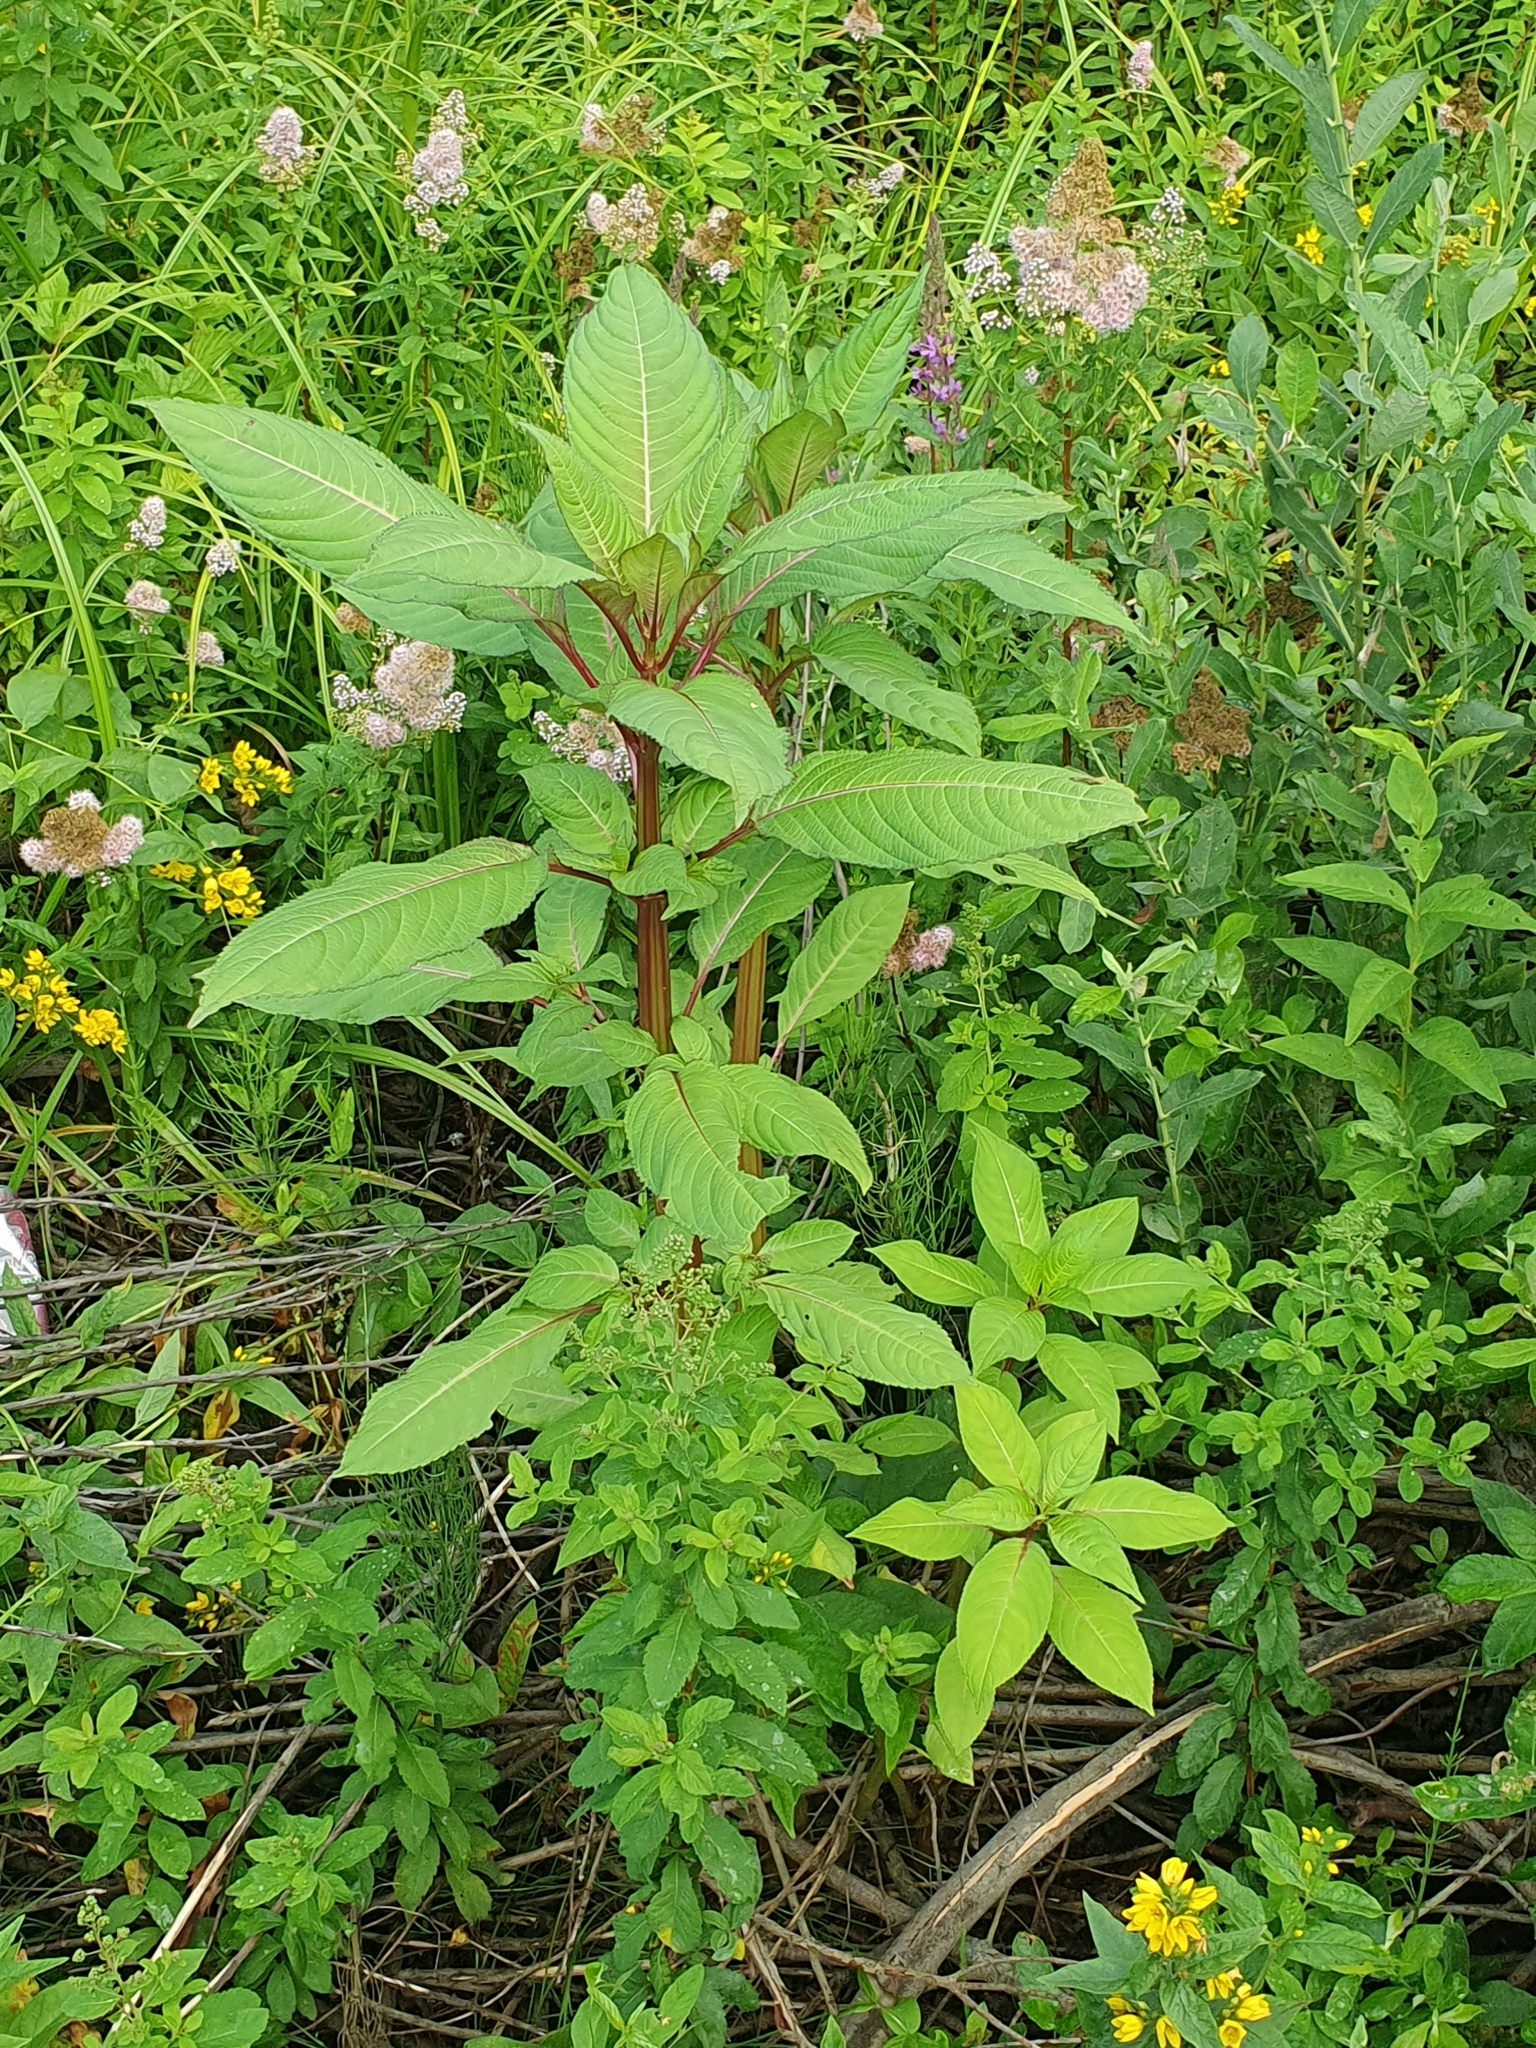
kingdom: Plantae
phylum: Tracheophyta
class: Magnoliopsida
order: Ericales
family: Balsaminaceae
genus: Impatiens
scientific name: Impatiens glandulifera
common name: Himalayan balsam
